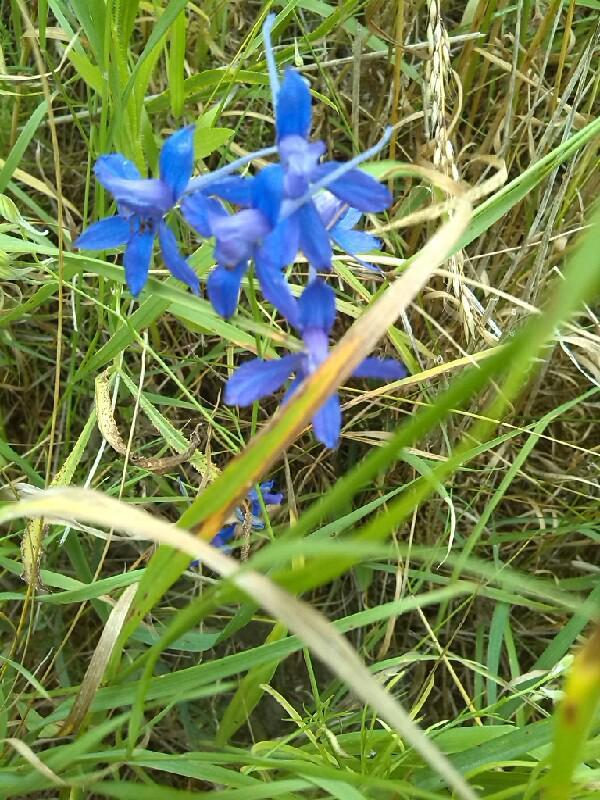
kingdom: Plantae
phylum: Tracheophyta
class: Magnoliopsida
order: Ranunculales
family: Ranunculaceae
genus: Delphinium
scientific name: Delphinium consolida
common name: Branching larkspur
